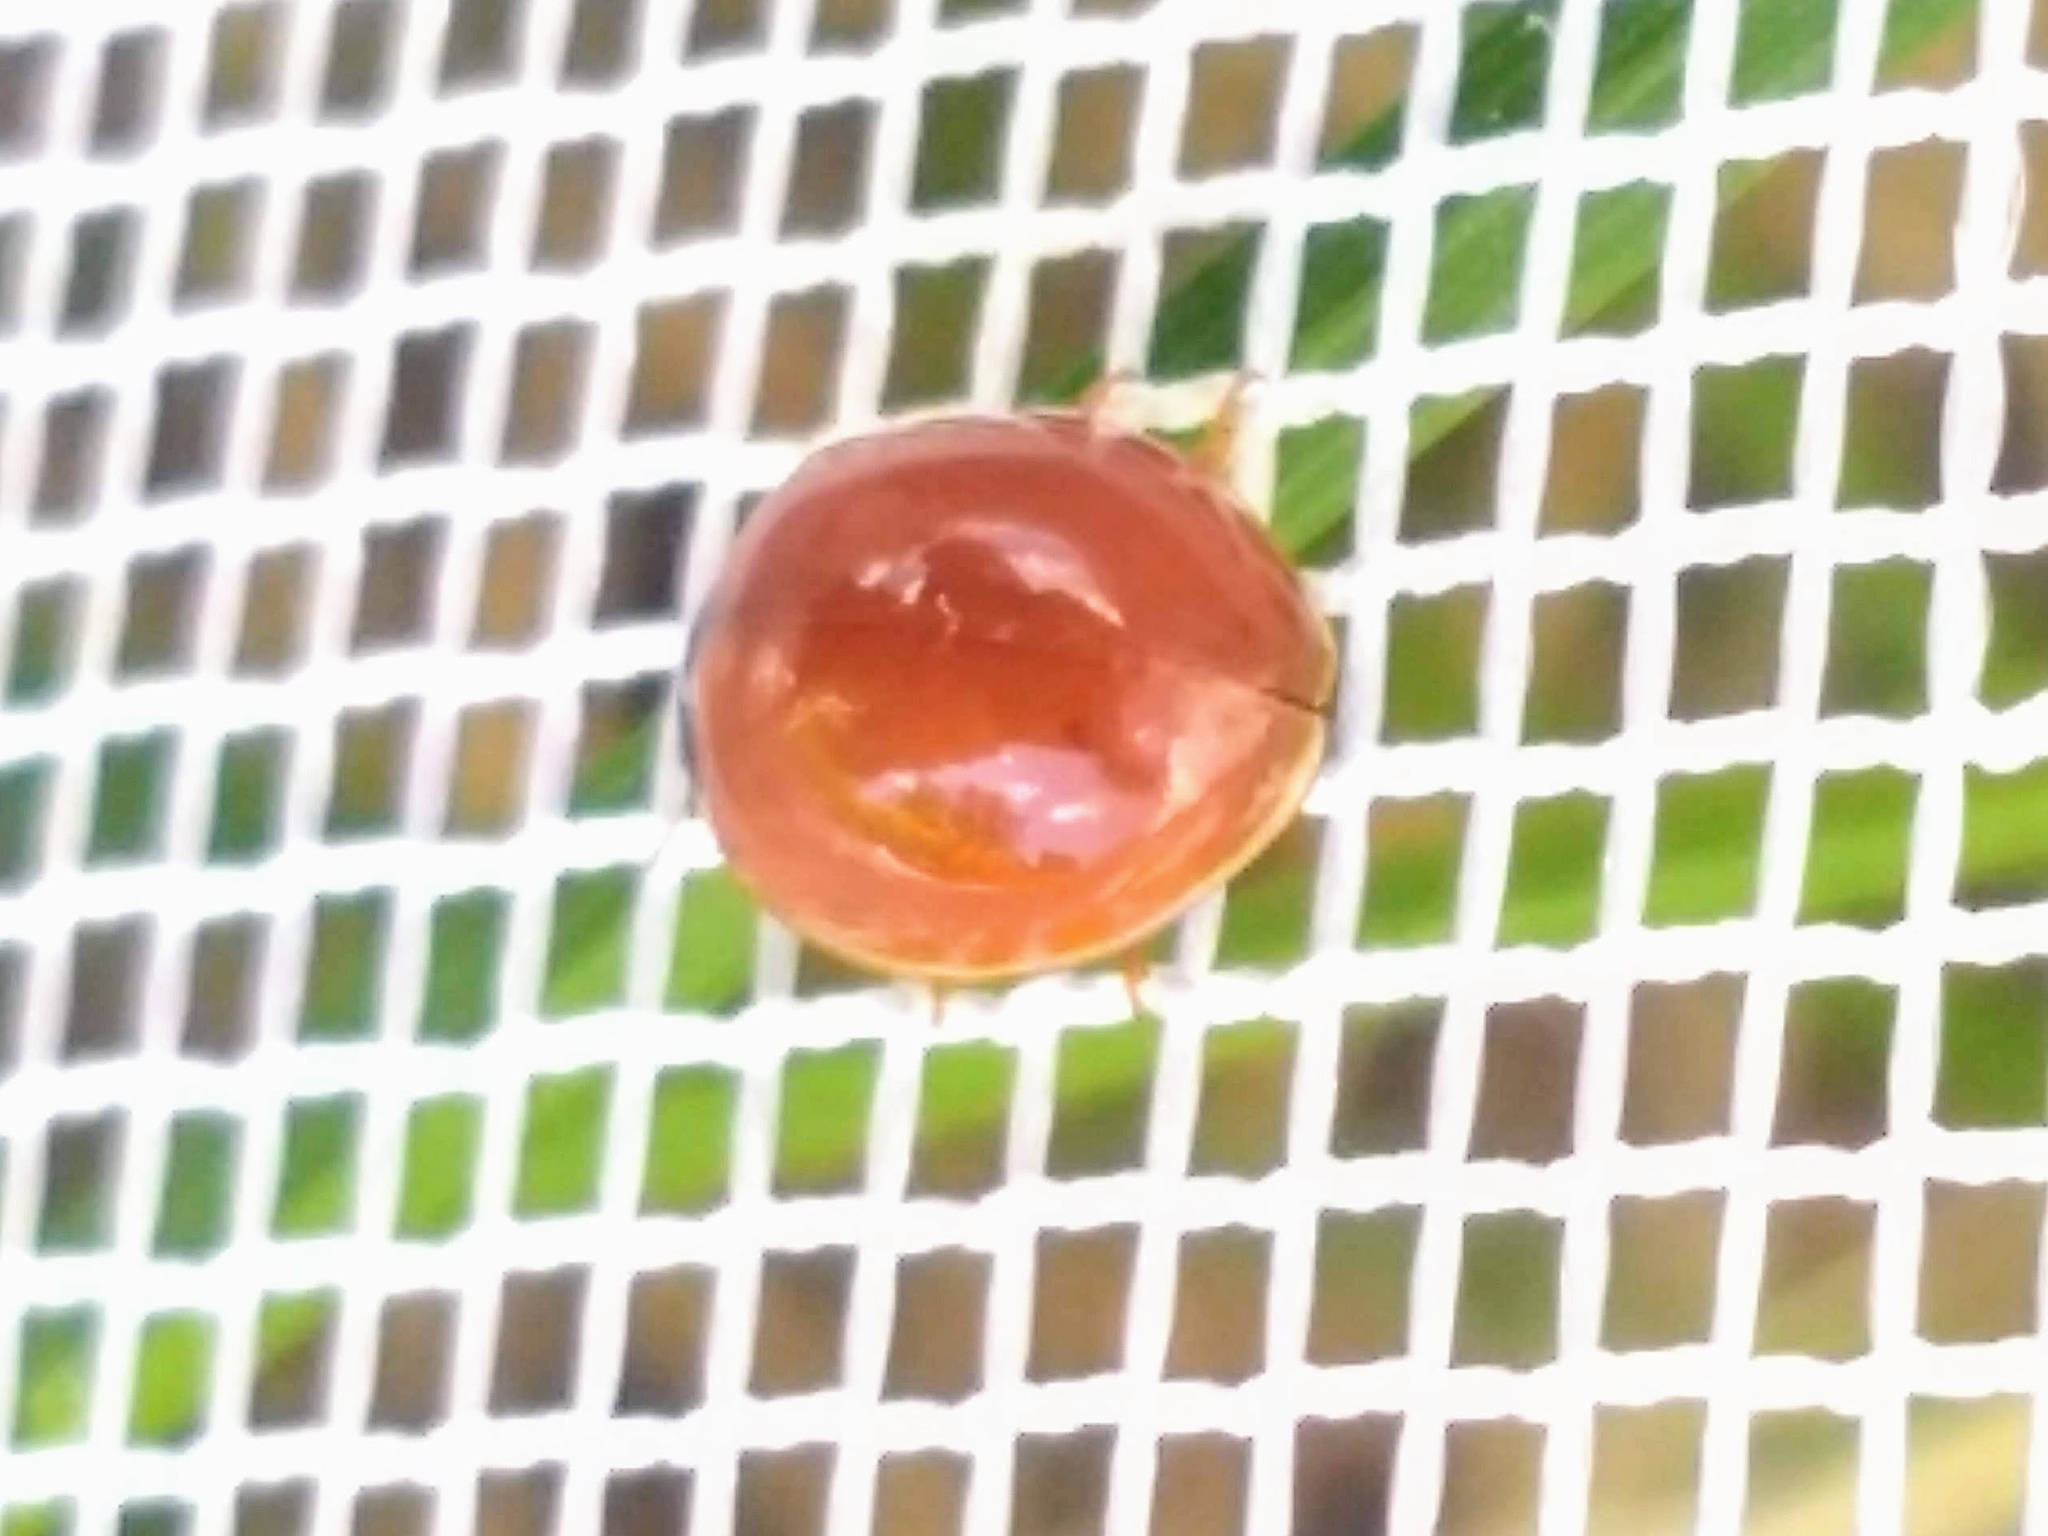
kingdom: Animalia
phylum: Arthropoda
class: Insecta
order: Coleoptera
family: Coccinellidae
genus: Cycloneda
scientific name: Cycloneda munda
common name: Polished lady beetle
